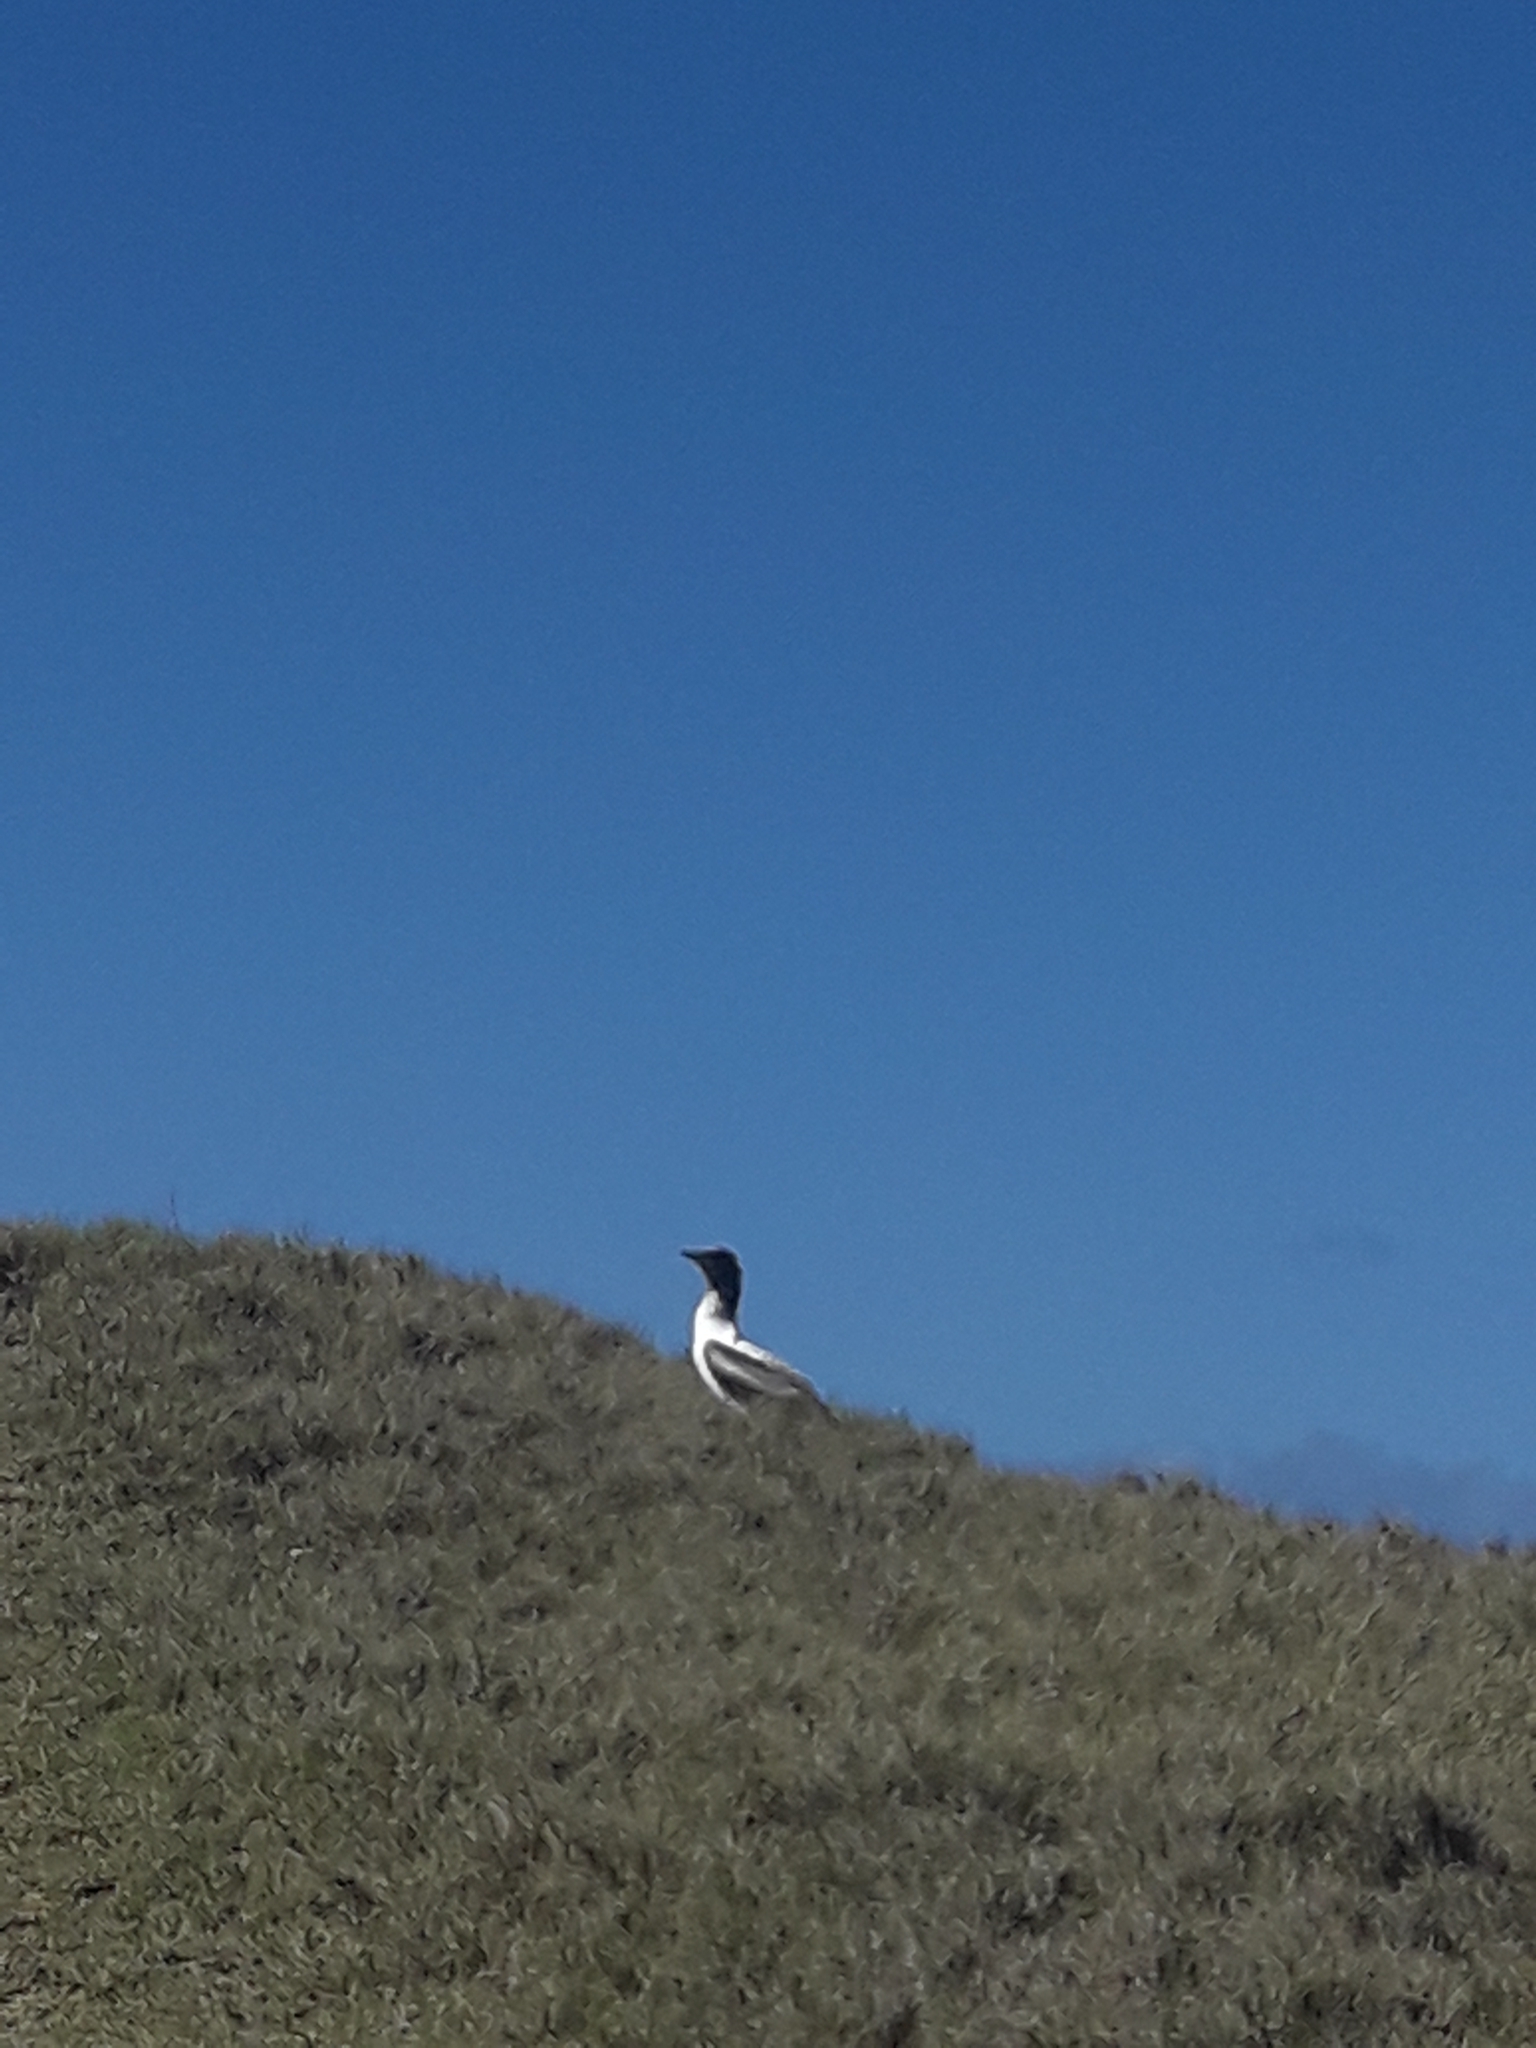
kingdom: Animalia
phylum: Chordata
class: Aves
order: Suliformes
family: Sulidae
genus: Sula
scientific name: Sula dactylatra
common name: Masked booby
